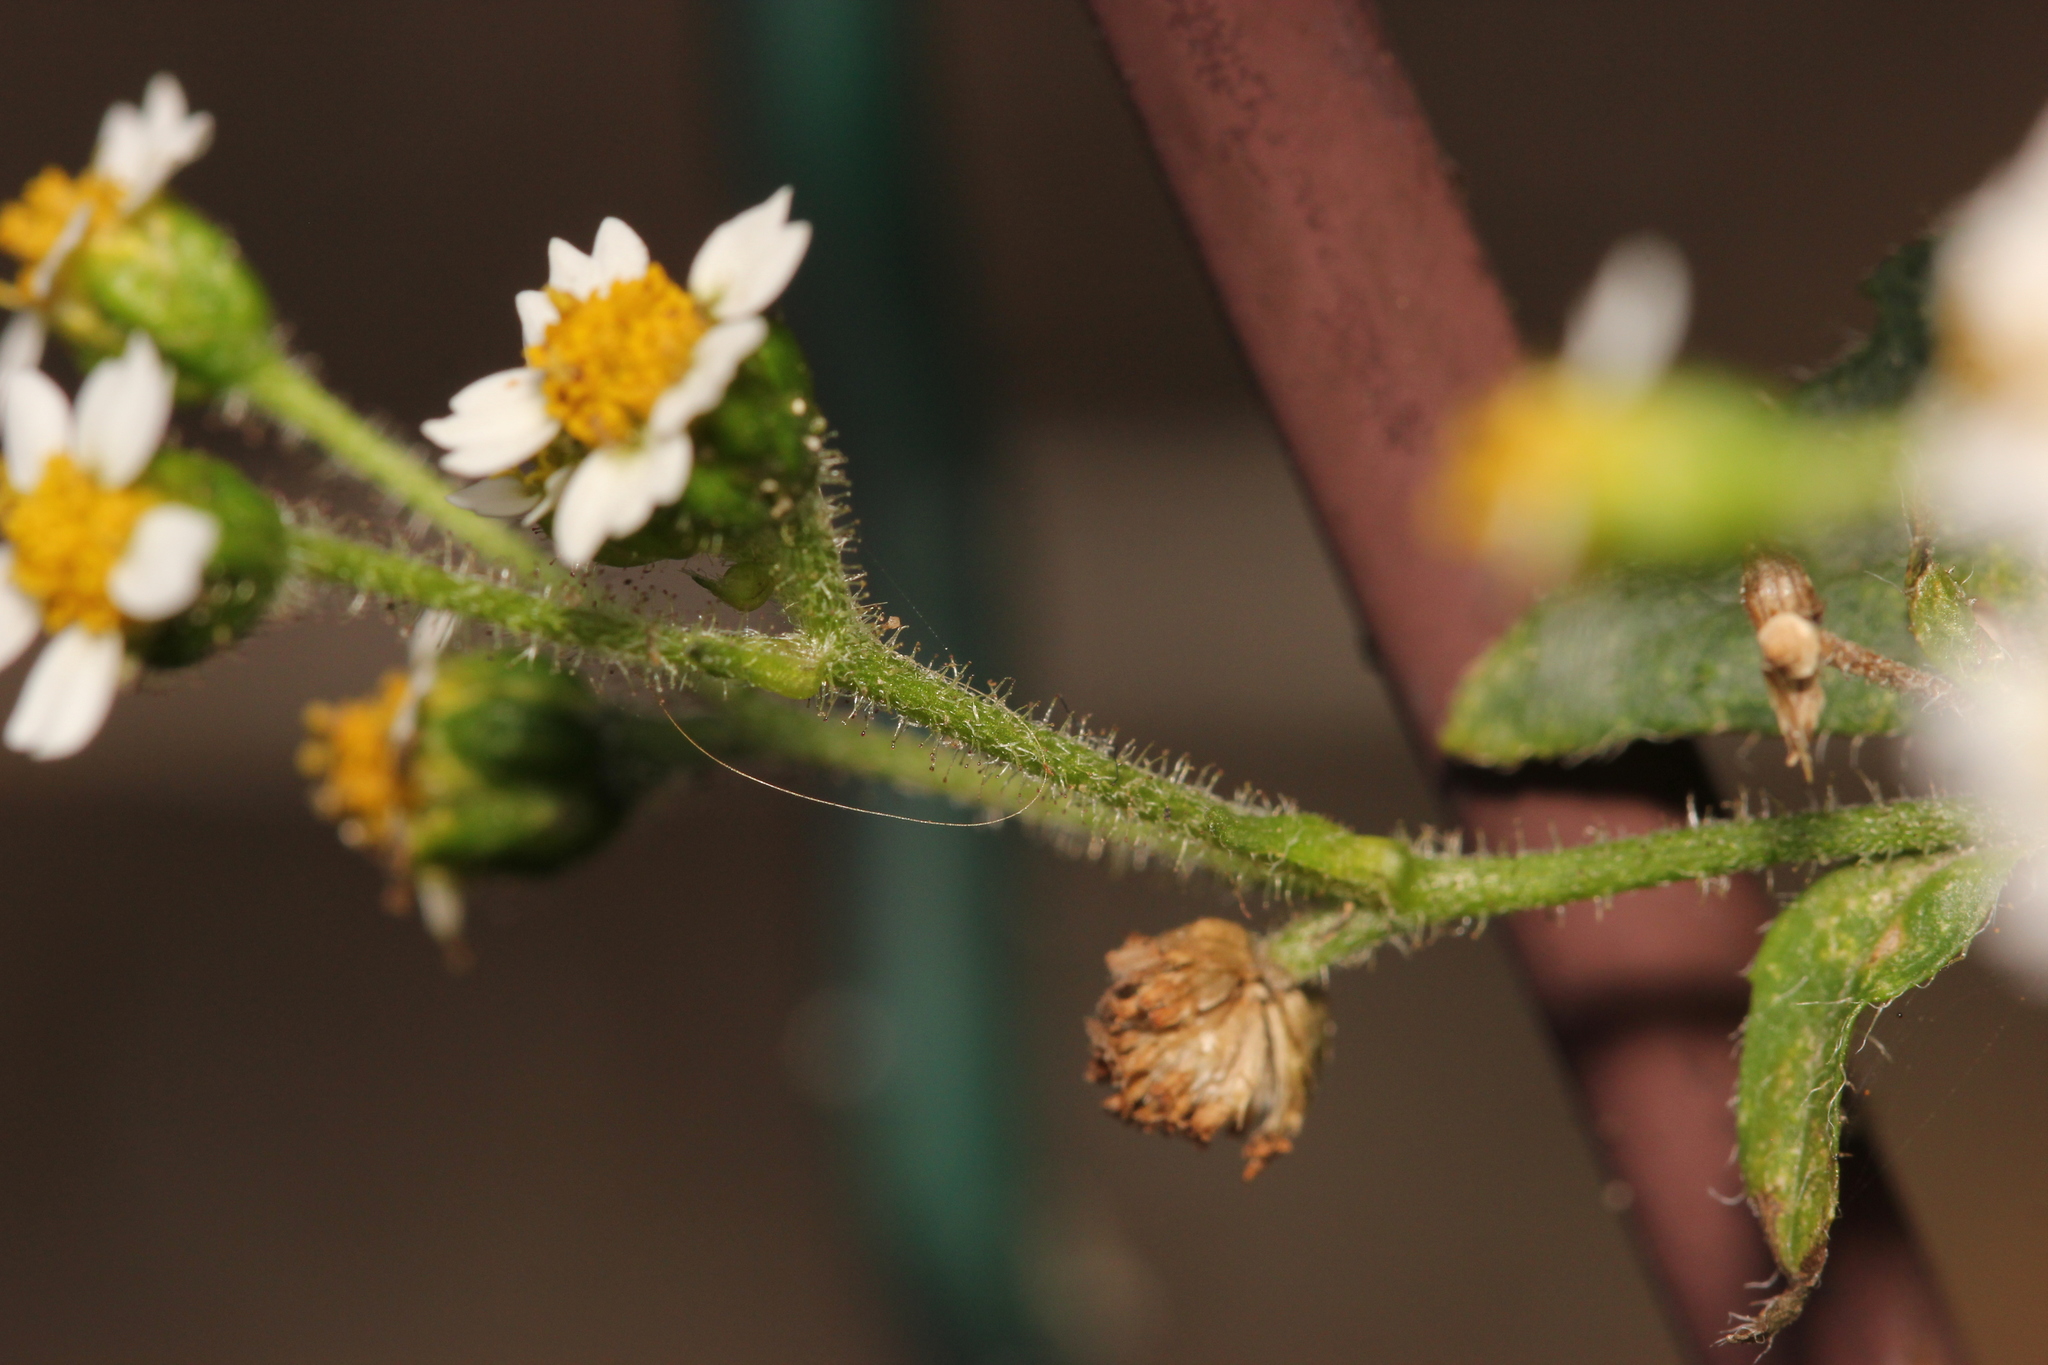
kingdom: Plantae
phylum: Tracheophyta
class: Magnoliopsida
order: Asterales
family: Asteraceae
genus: Galinsoga
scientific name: Galinsoga quadriradiata
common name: Shaggy soldier
